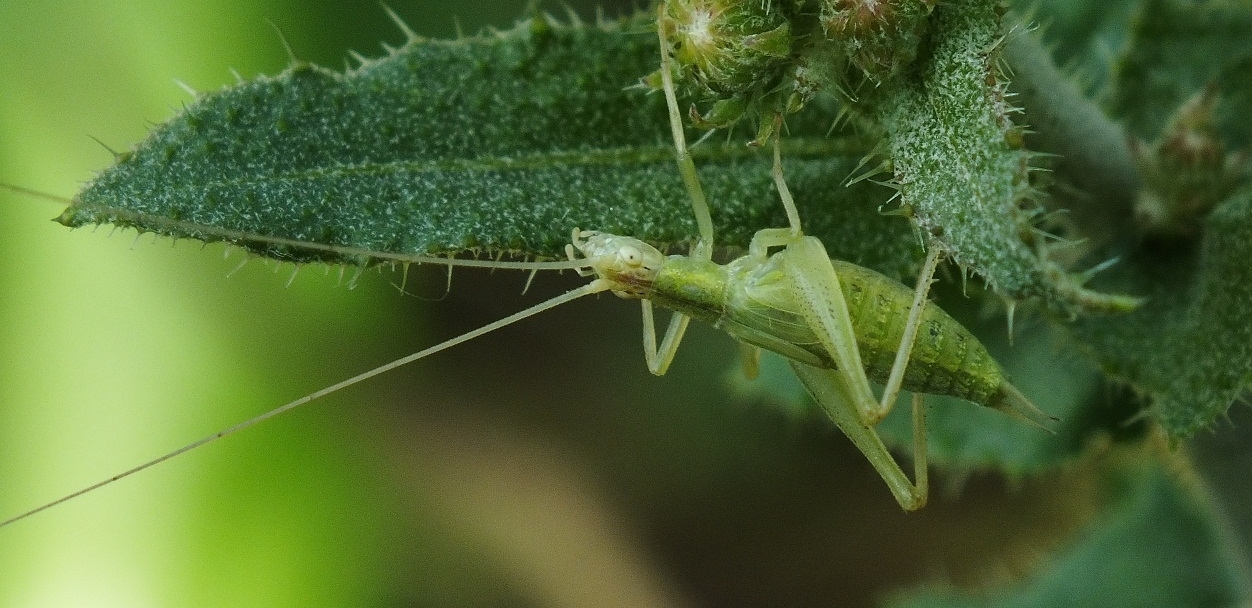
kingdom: Animalia
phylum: Arthropoda
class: Insecta
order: Orthoptera
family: Gryllidae
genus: Oecanthus
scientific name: Oecanthus pellucens
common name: Tree-cricket
